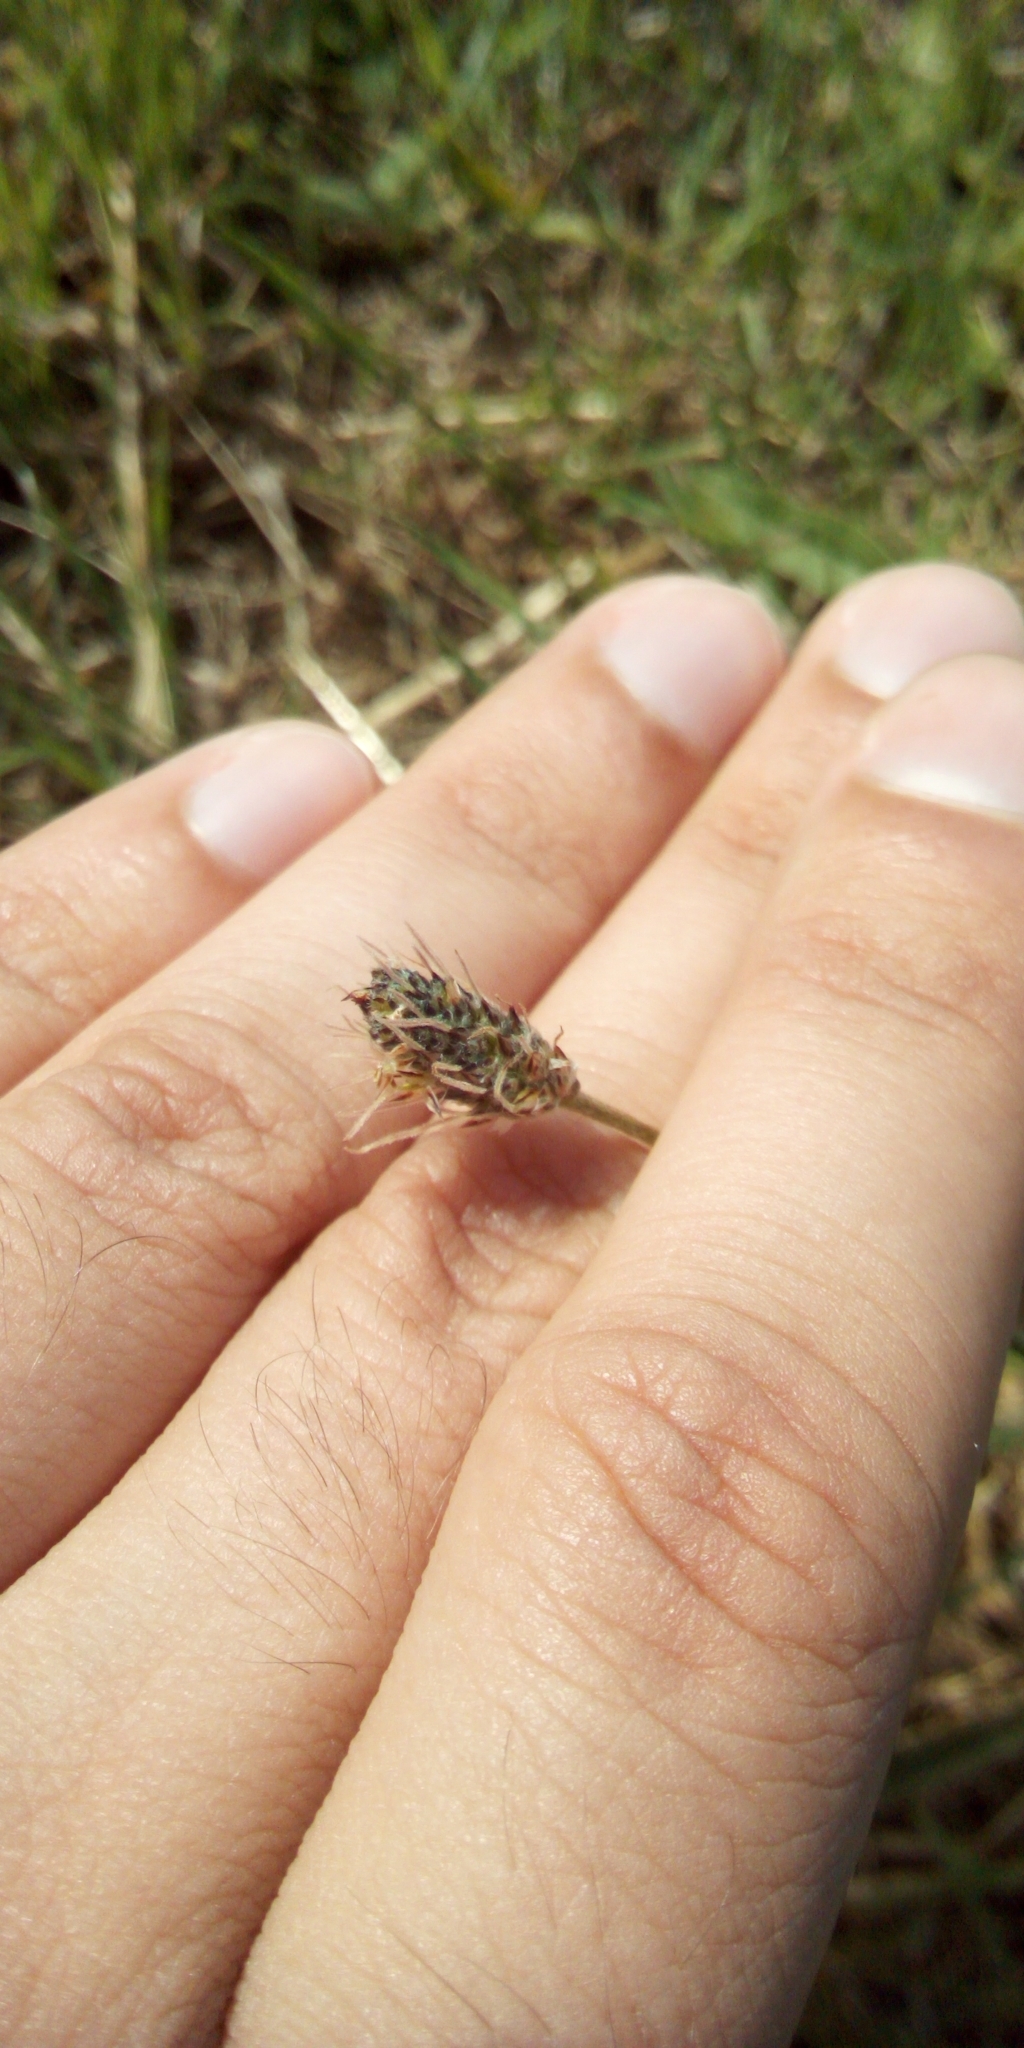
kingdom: Plantae
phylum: Tracheophyta
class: Magnoliopsida
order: Lamiales
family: Plantaginaceae
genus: Plantago
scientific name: Plantago lanceolata
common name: Ribwort plantain
